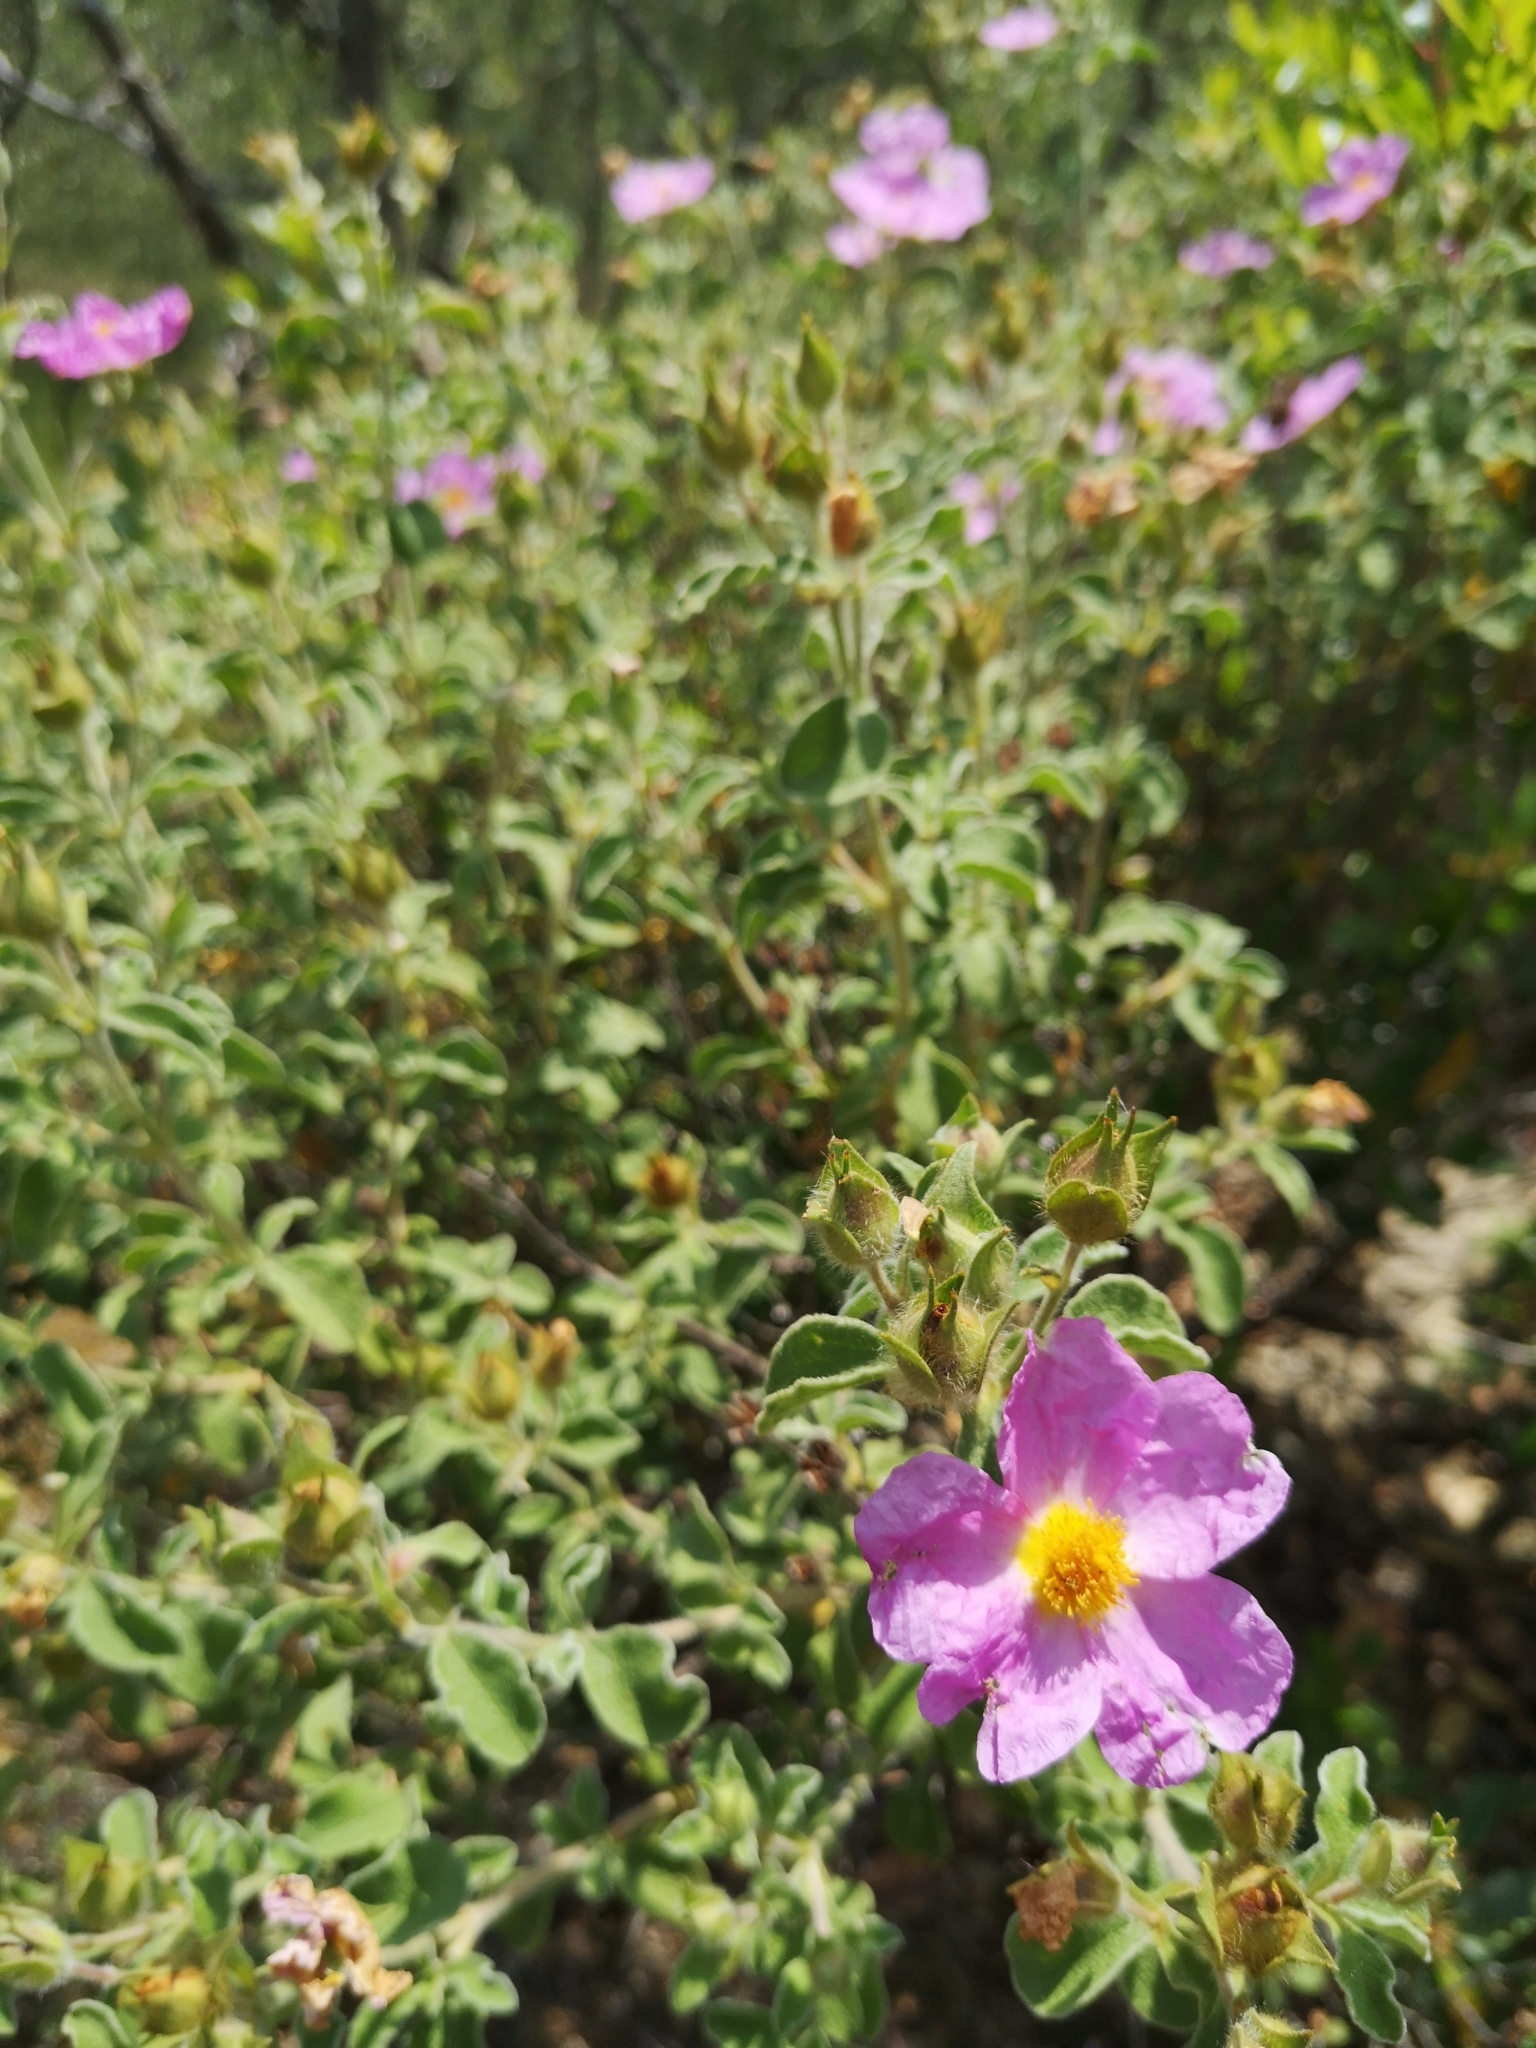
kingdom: Plantae
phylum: Tracheophyta
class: Magnoliopsida
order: Malvales
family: Cistaceae
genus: Cistus
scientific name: Cistus tauricus
